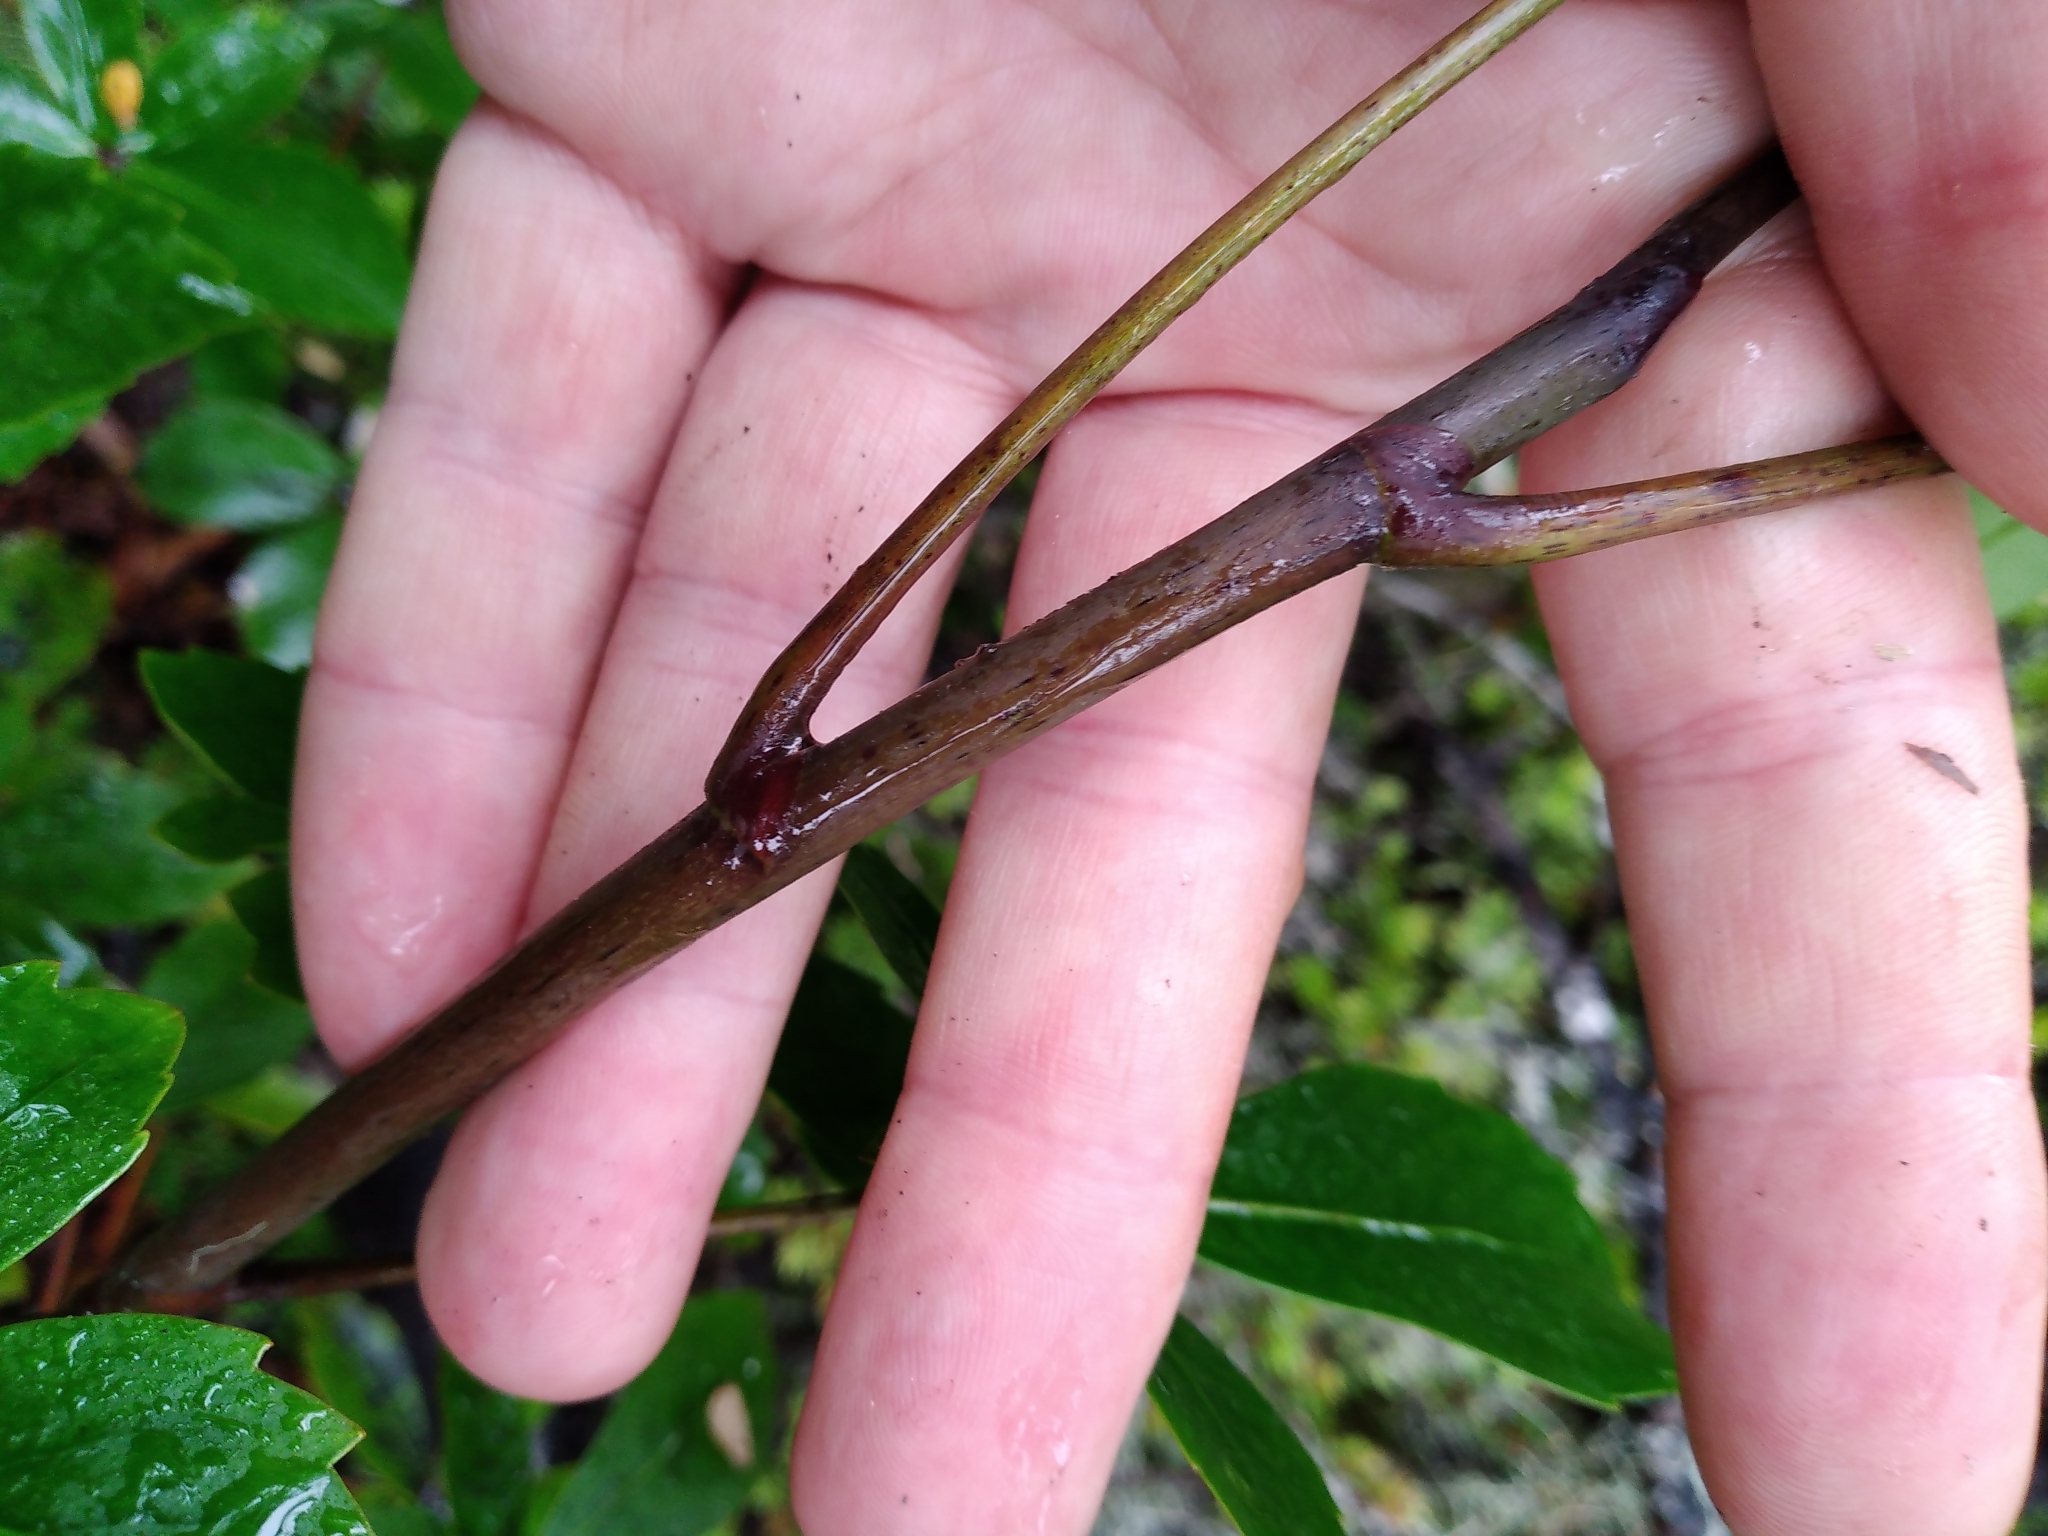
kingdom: Plantae
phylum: Tracheophyta
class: Magnoliopsida
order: Apiales
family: Araliaceae
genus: Neopanax
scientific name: Neopanax colensoi
